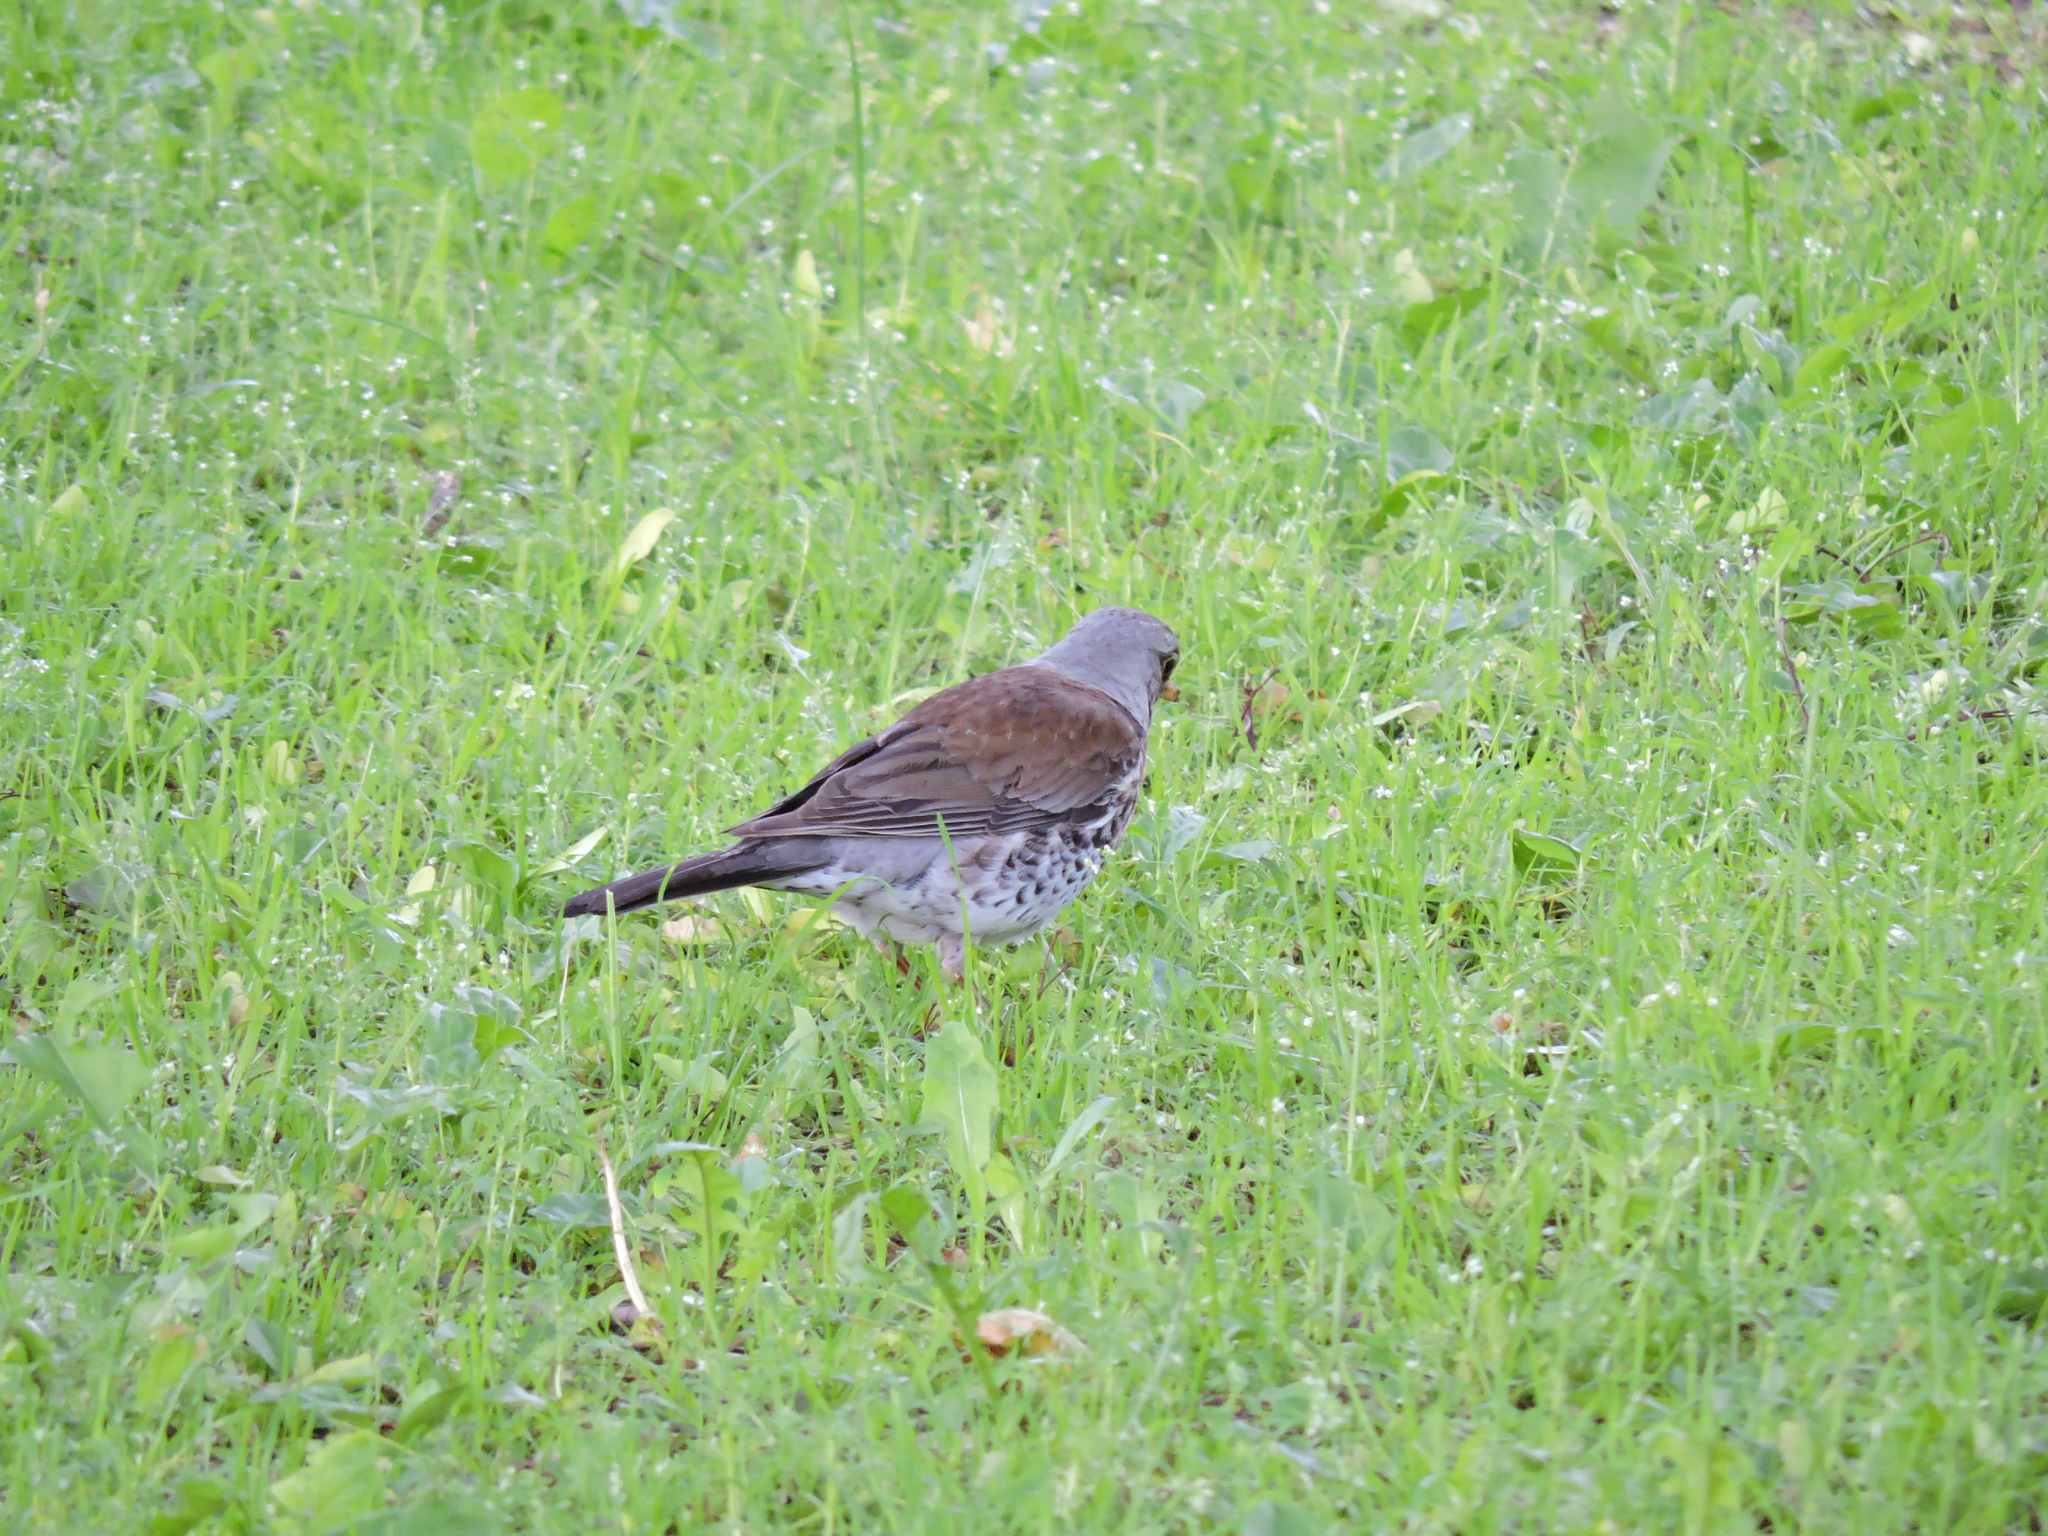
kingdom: Animalia
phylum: Chordata
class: Aves
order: Passeriformes
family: Turdidae
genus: Turdus
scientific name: Turdus pilaris
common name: Fieldfare
